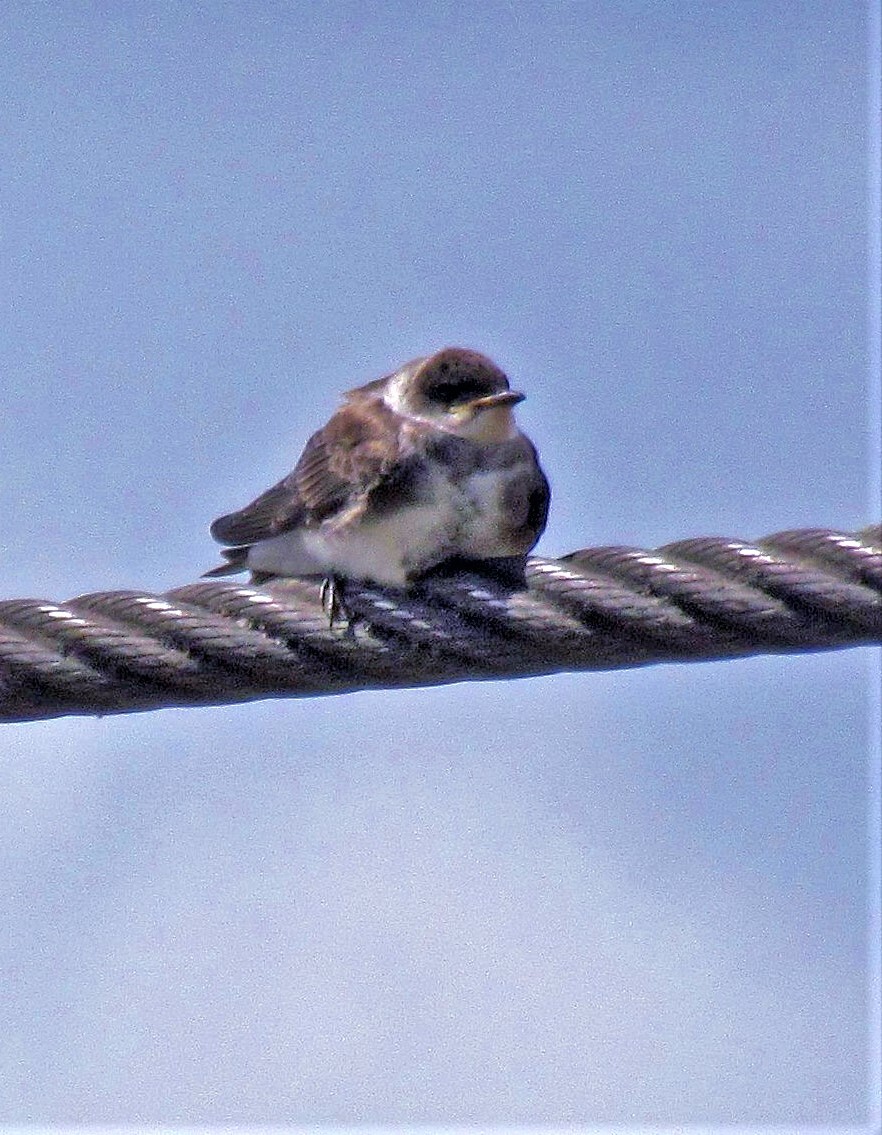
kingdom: Animalia
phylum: Chordata
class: Aves
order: Passeriformes
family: Hirundinidae
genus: Progne
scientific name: Progne tapera
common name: Brown-chested martin
